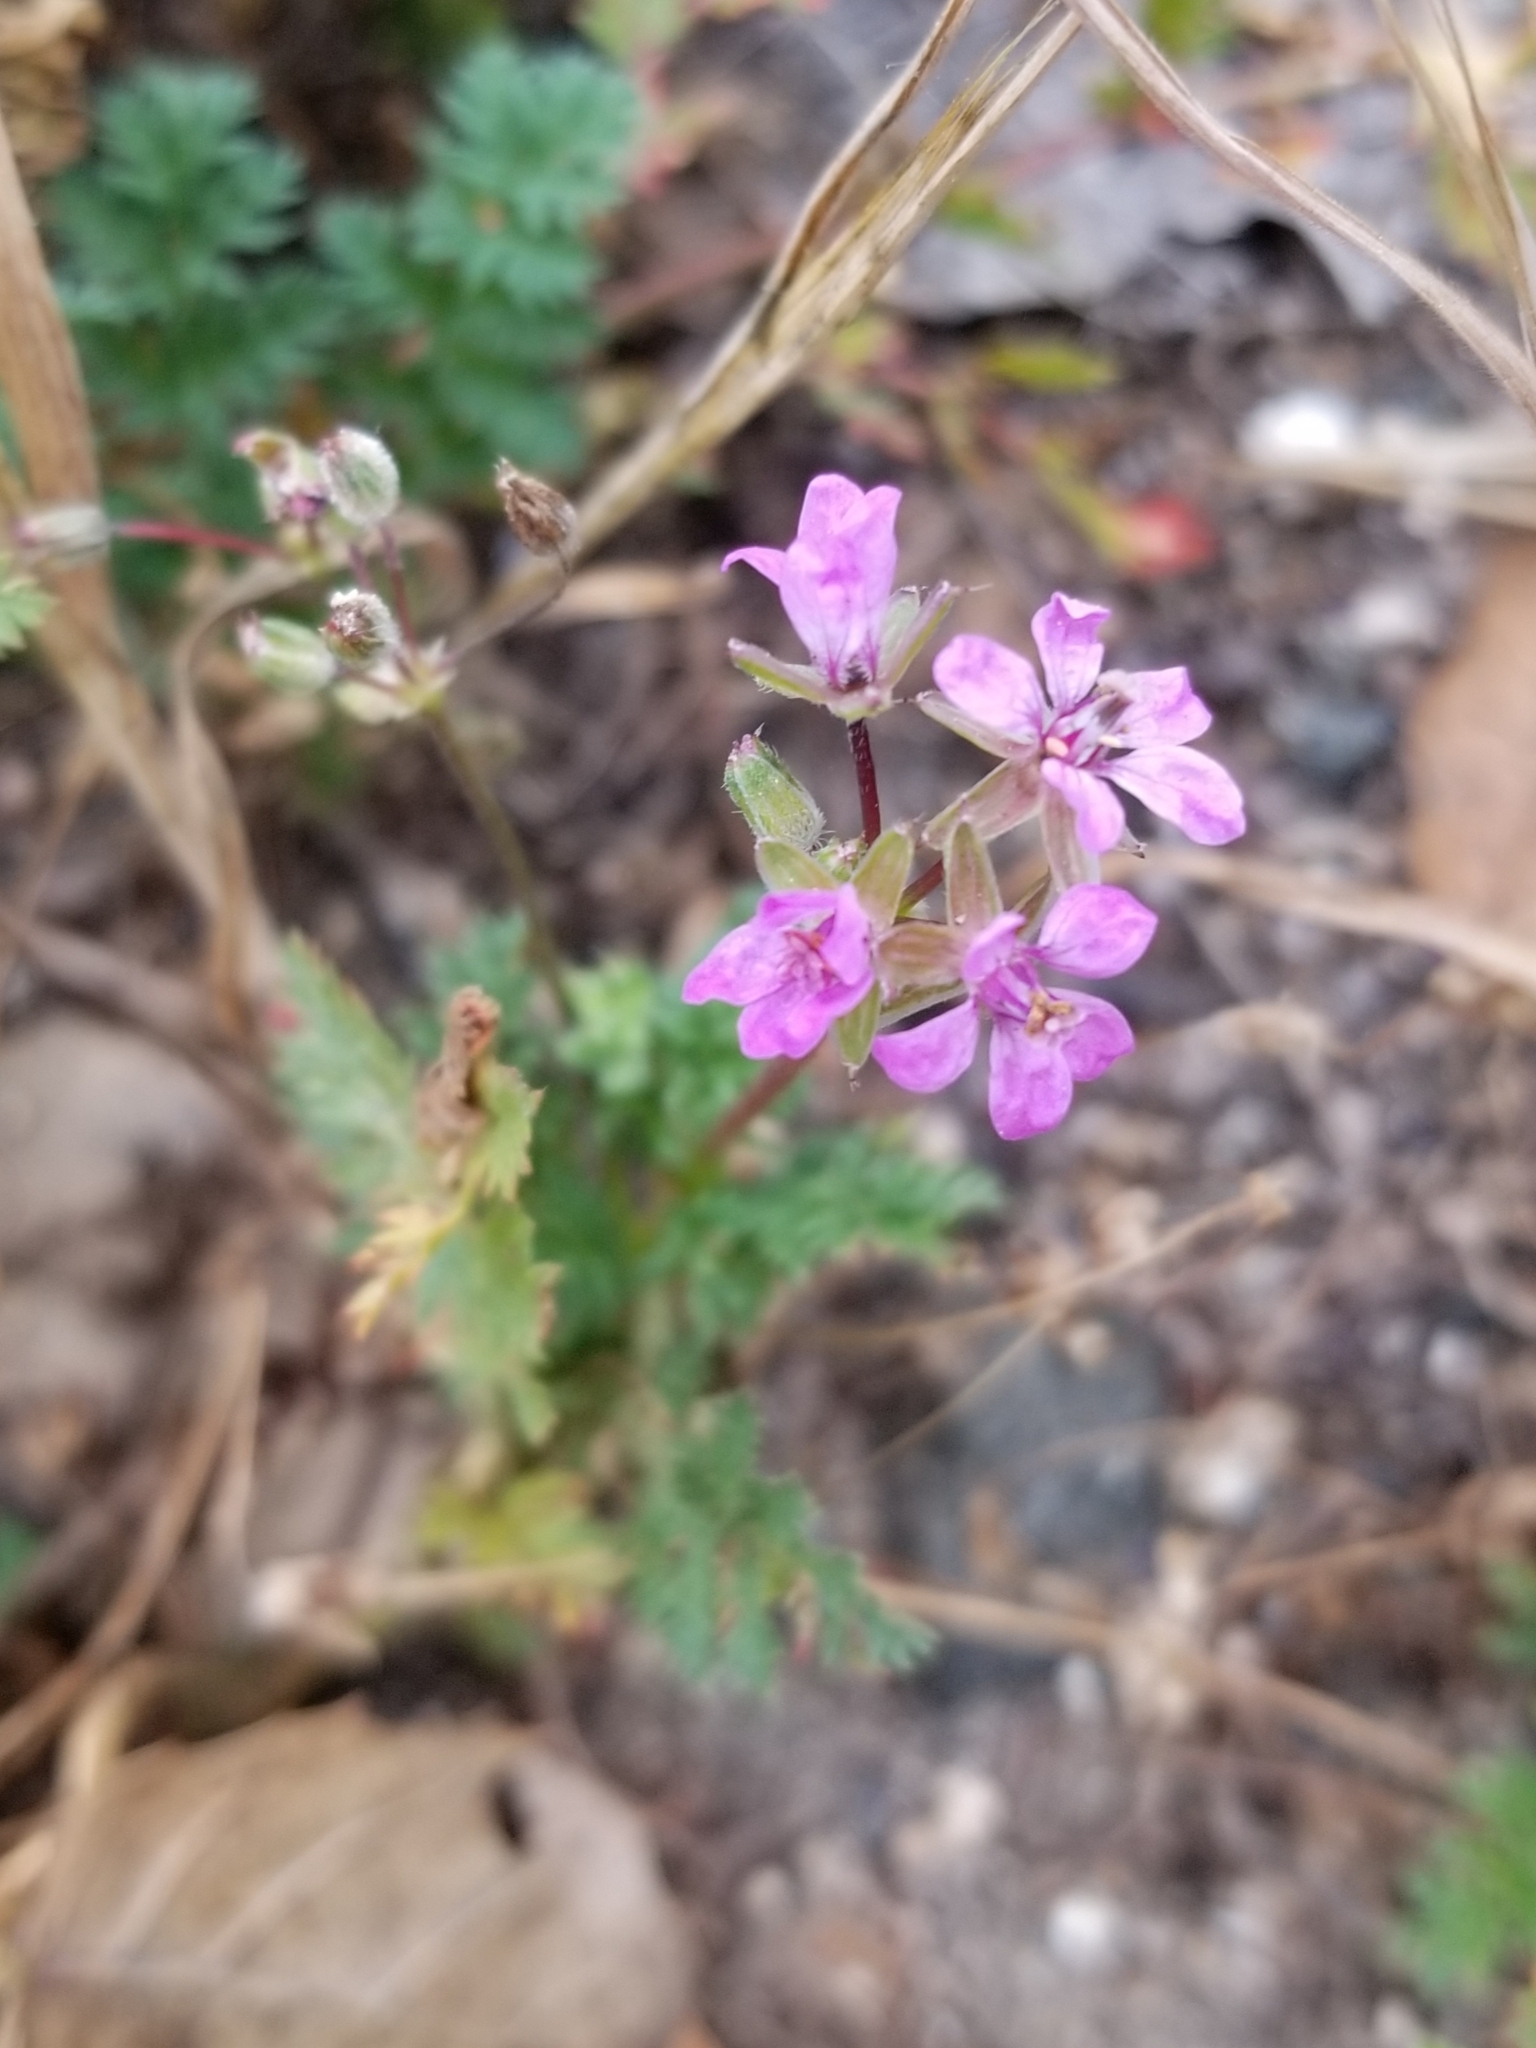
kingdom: Plantae
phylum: Tracheophyta
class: Magnoliopsida
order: Geraniales
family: Geraniaceae
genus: Erodium
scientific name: Erodium cicutarium
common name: Common stork's-bill
